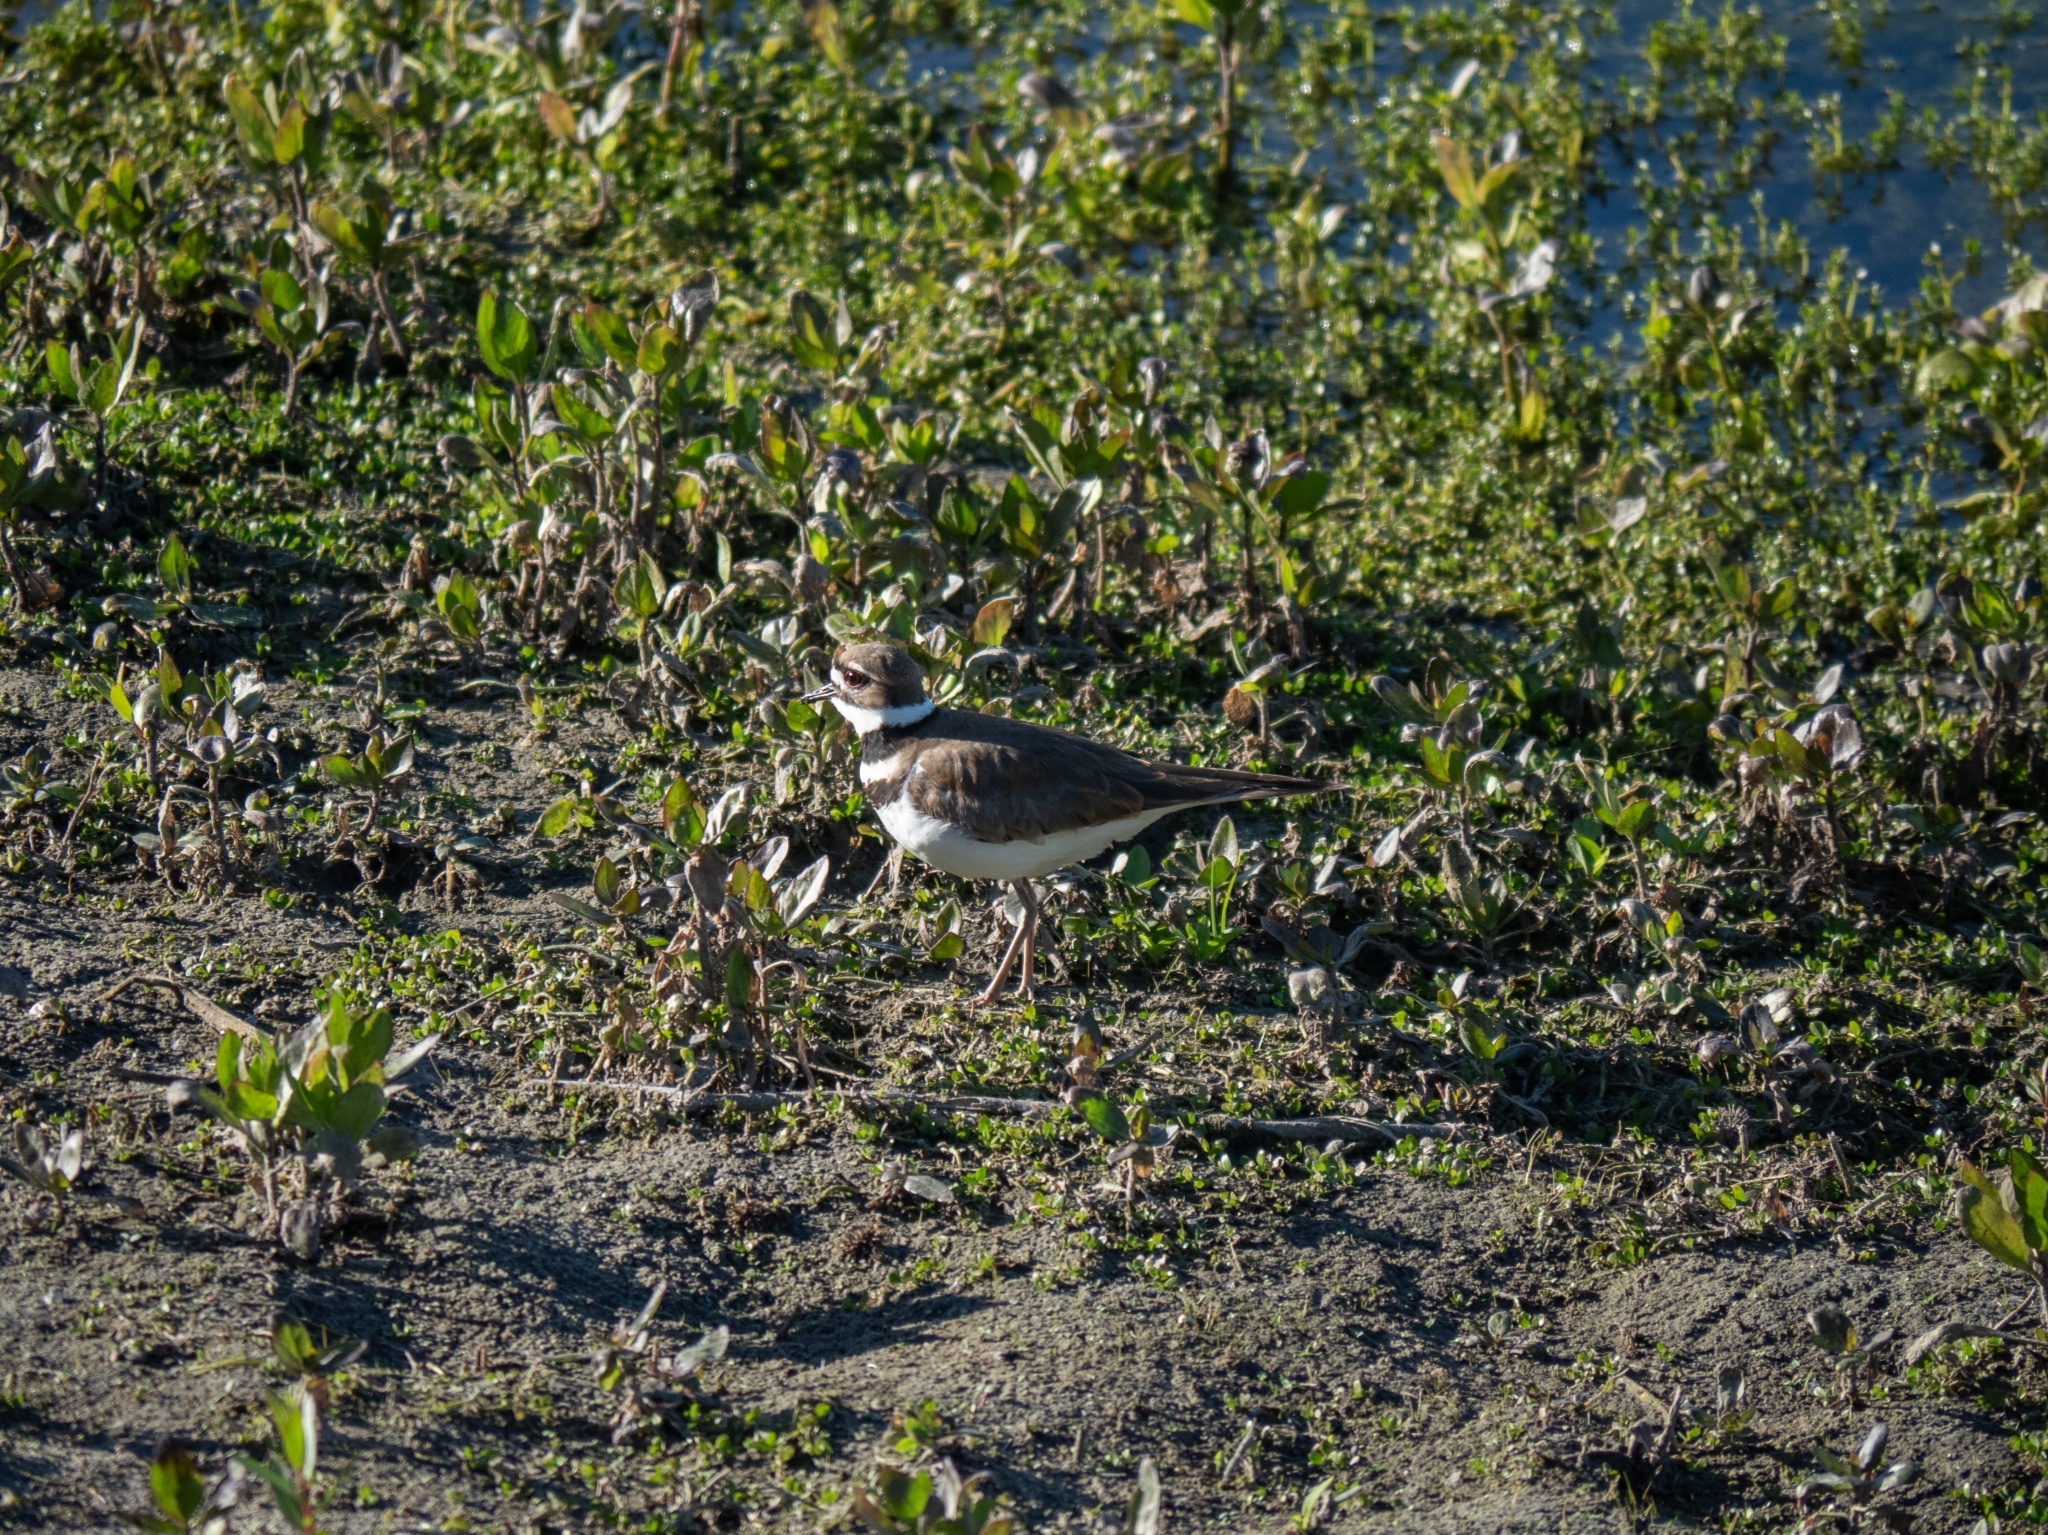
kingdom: Animalia
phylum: Chordata
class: Aves
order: Charadriiformes
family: Charadriidae
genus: Charadrius
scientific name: Charadrius vociferus
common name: Killdeer
